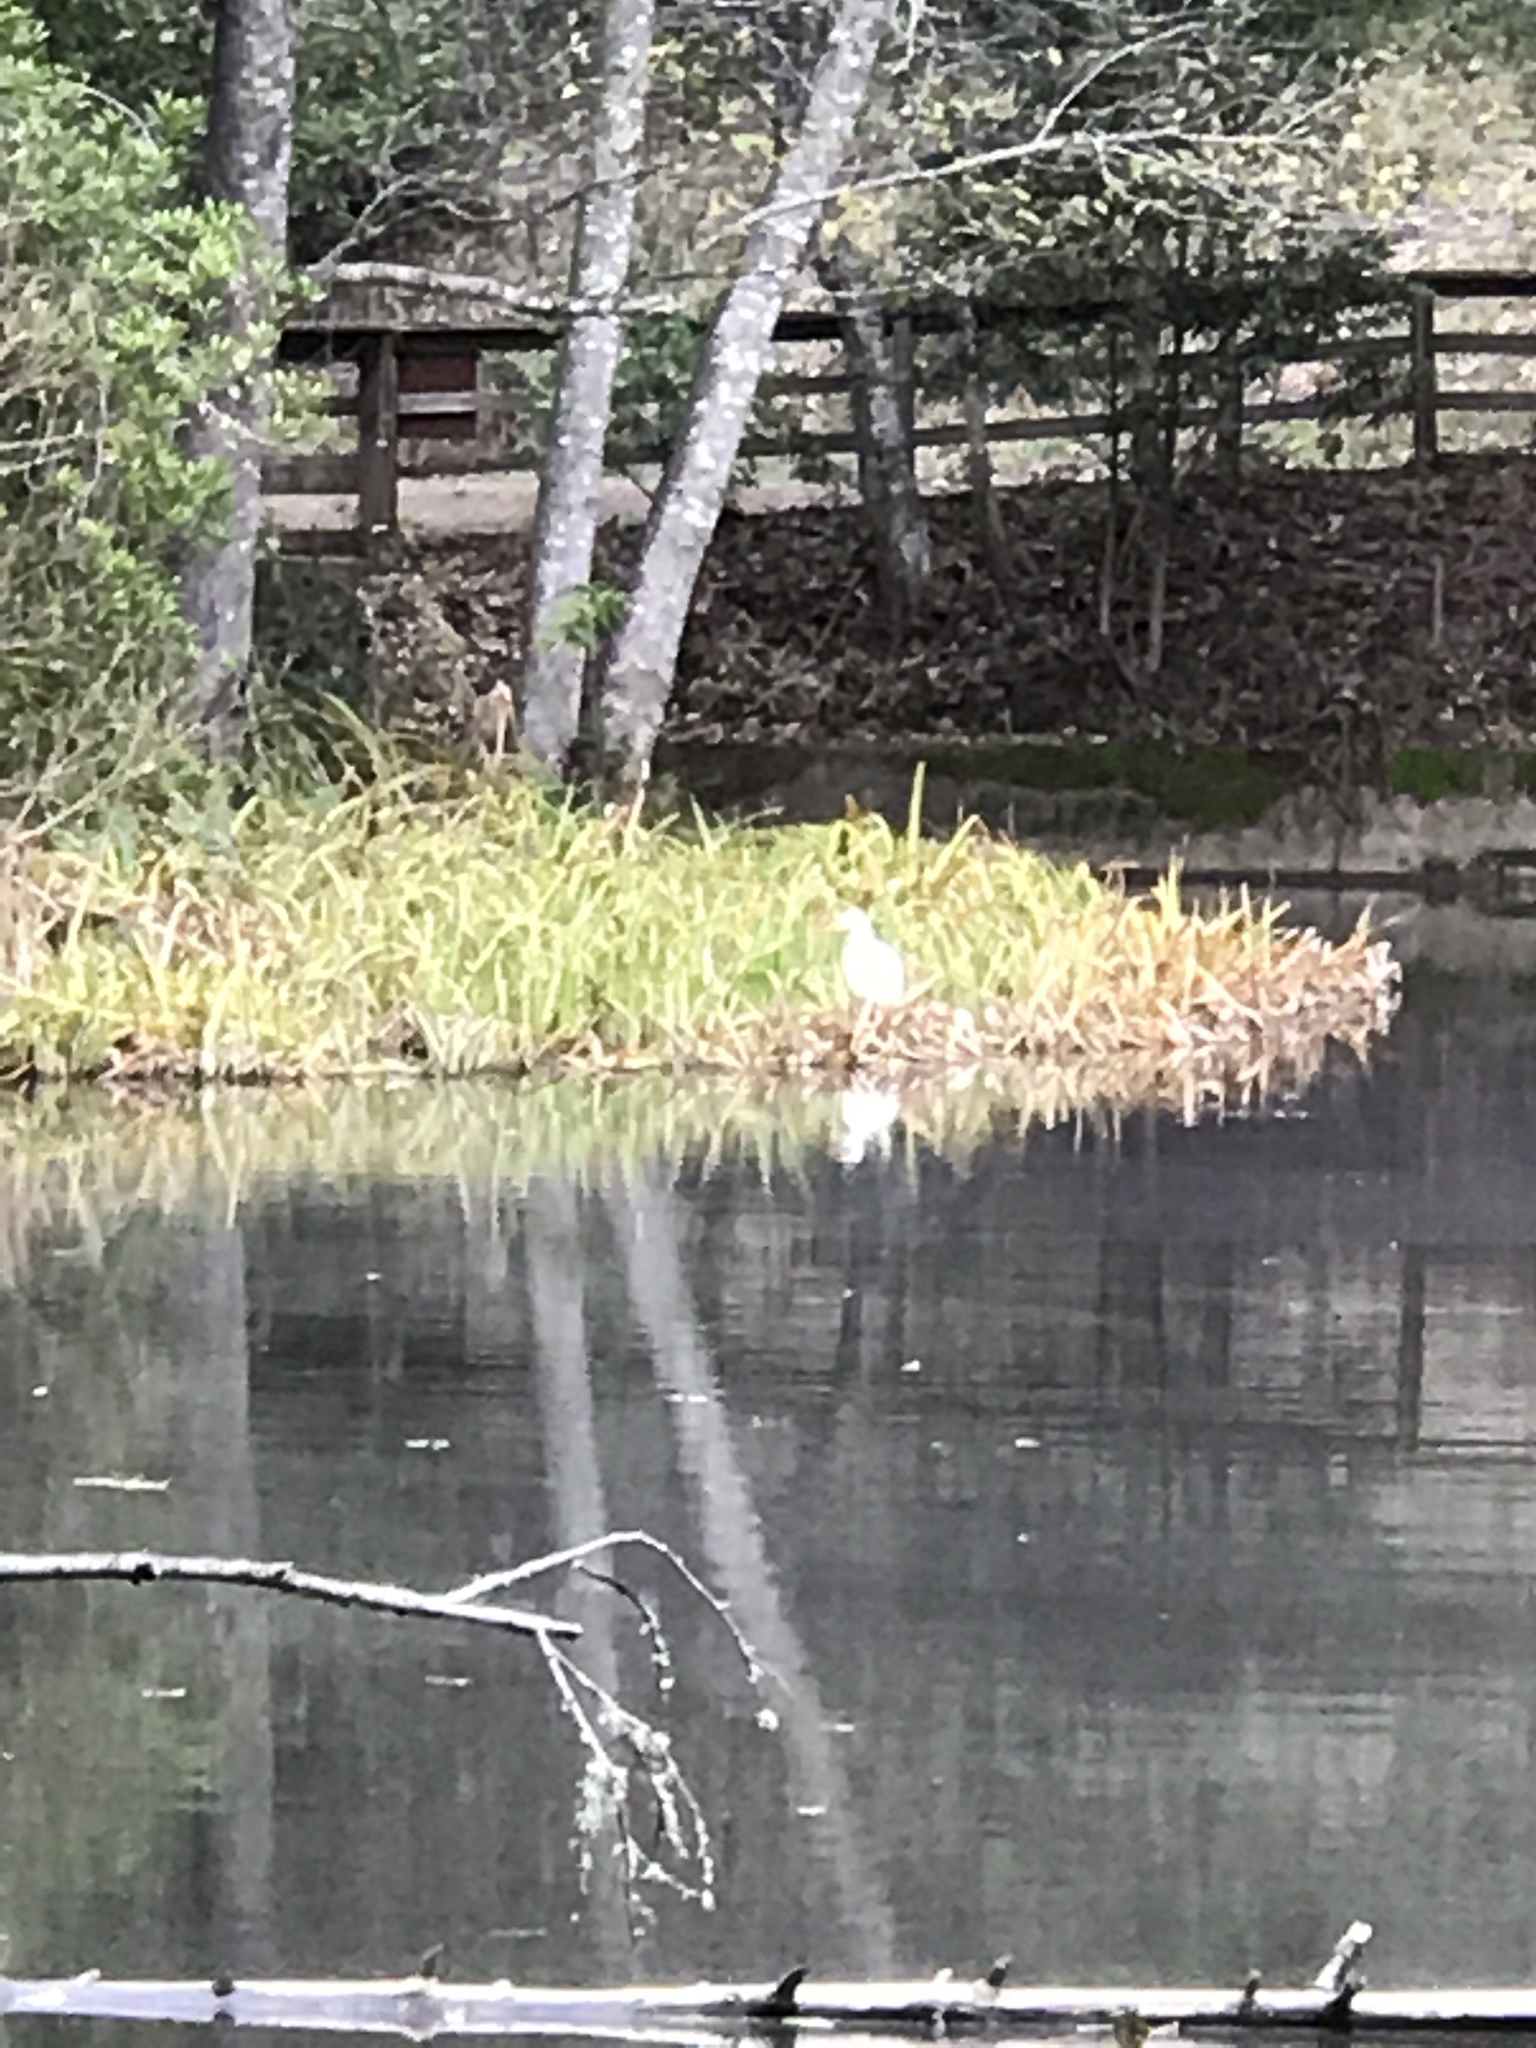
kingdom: Animalia
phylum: Chordata
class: Aves
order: Pelecaniformes
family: Ardeidae
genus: Ardea
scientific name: Ardea alba
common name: Great egret
